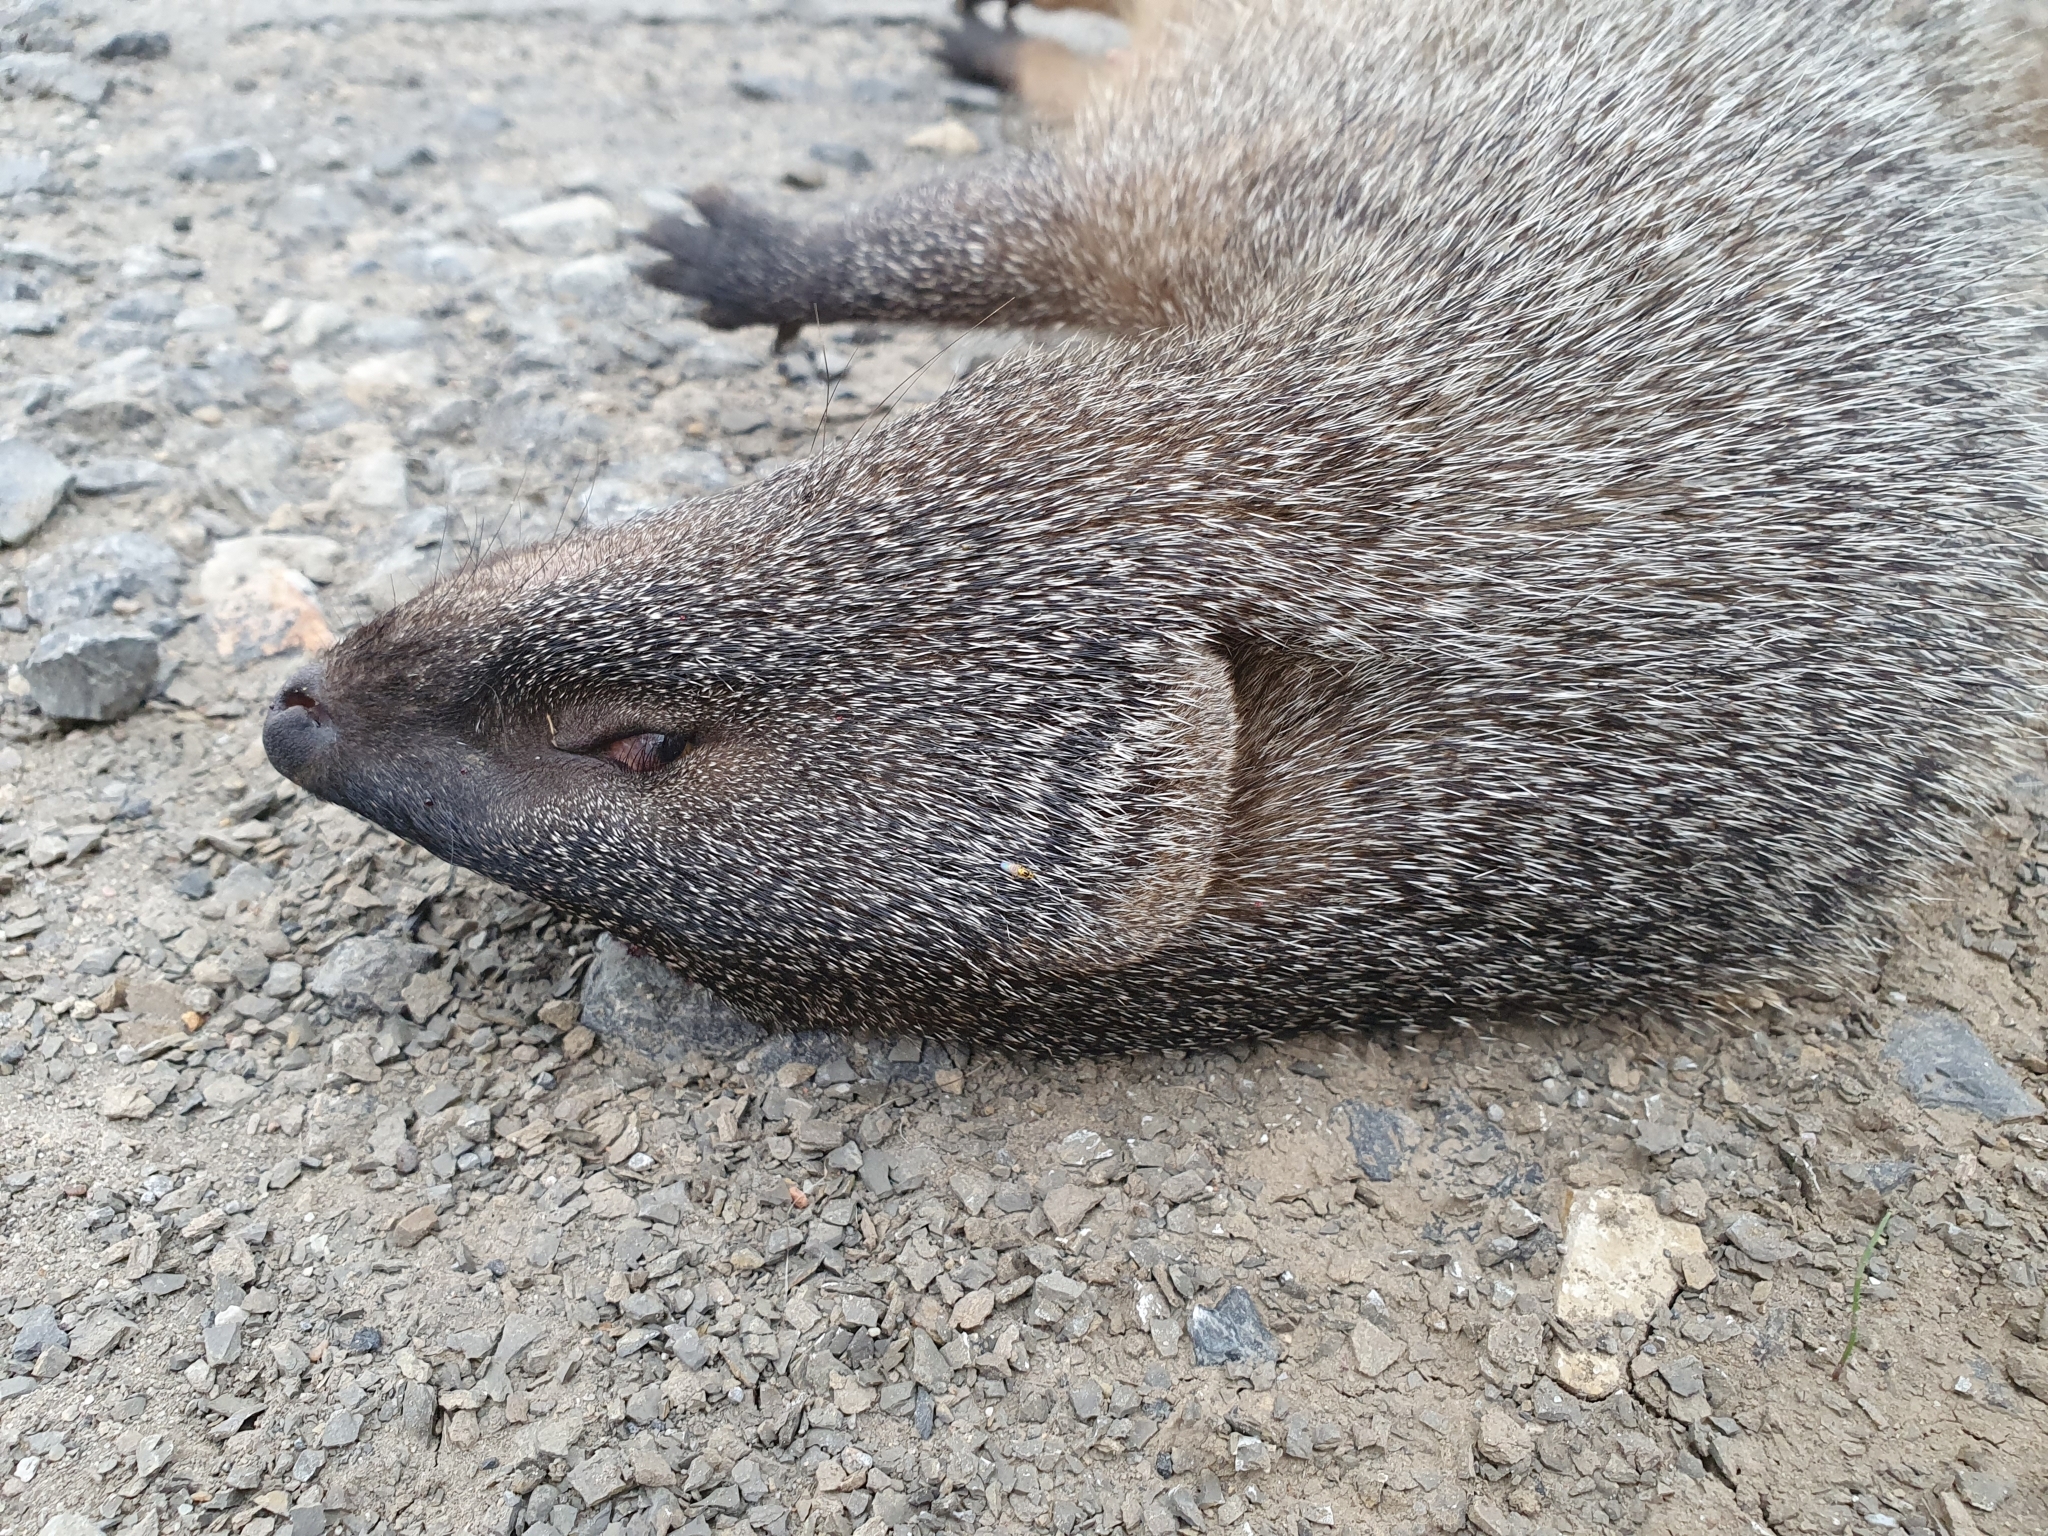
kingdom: Animalia
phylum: Chordata
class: Mammalia
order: Carnivora
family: Herpestidae
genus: Herpestes
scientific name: Herpestes ichneumon
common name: Egyptian mongoose
